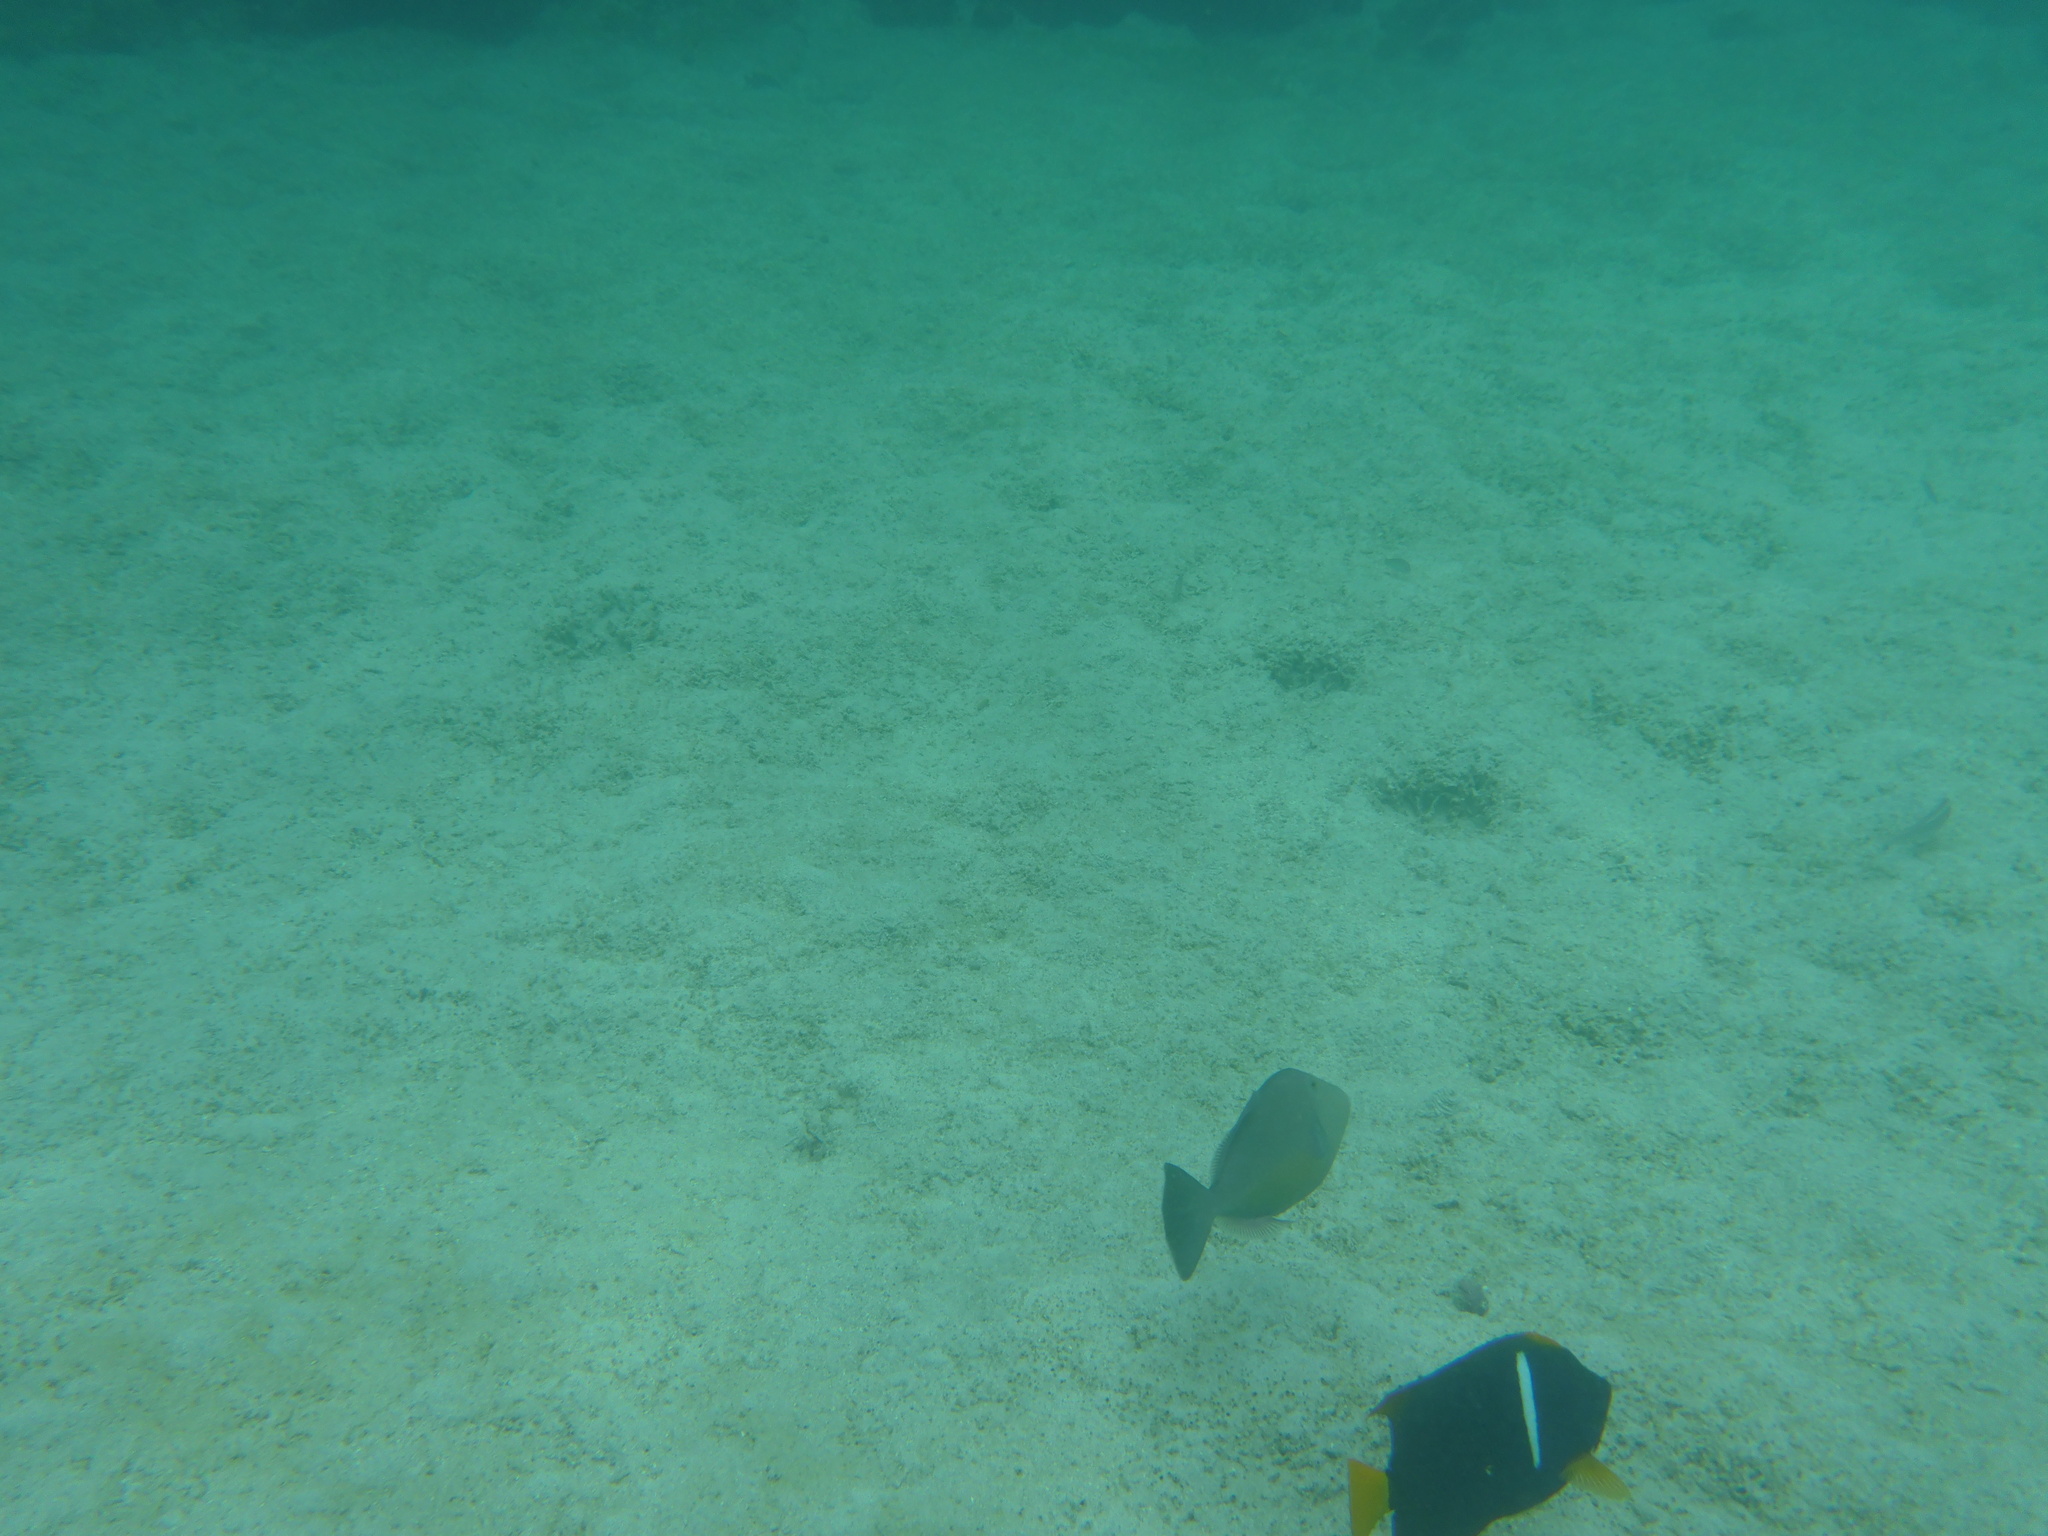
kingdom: Animalia
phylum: Chordata
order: Tetraodontiformes
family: Balistidae
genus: Sufflamen
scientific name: Sufflamen verres
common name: Orangeside triggerfish
